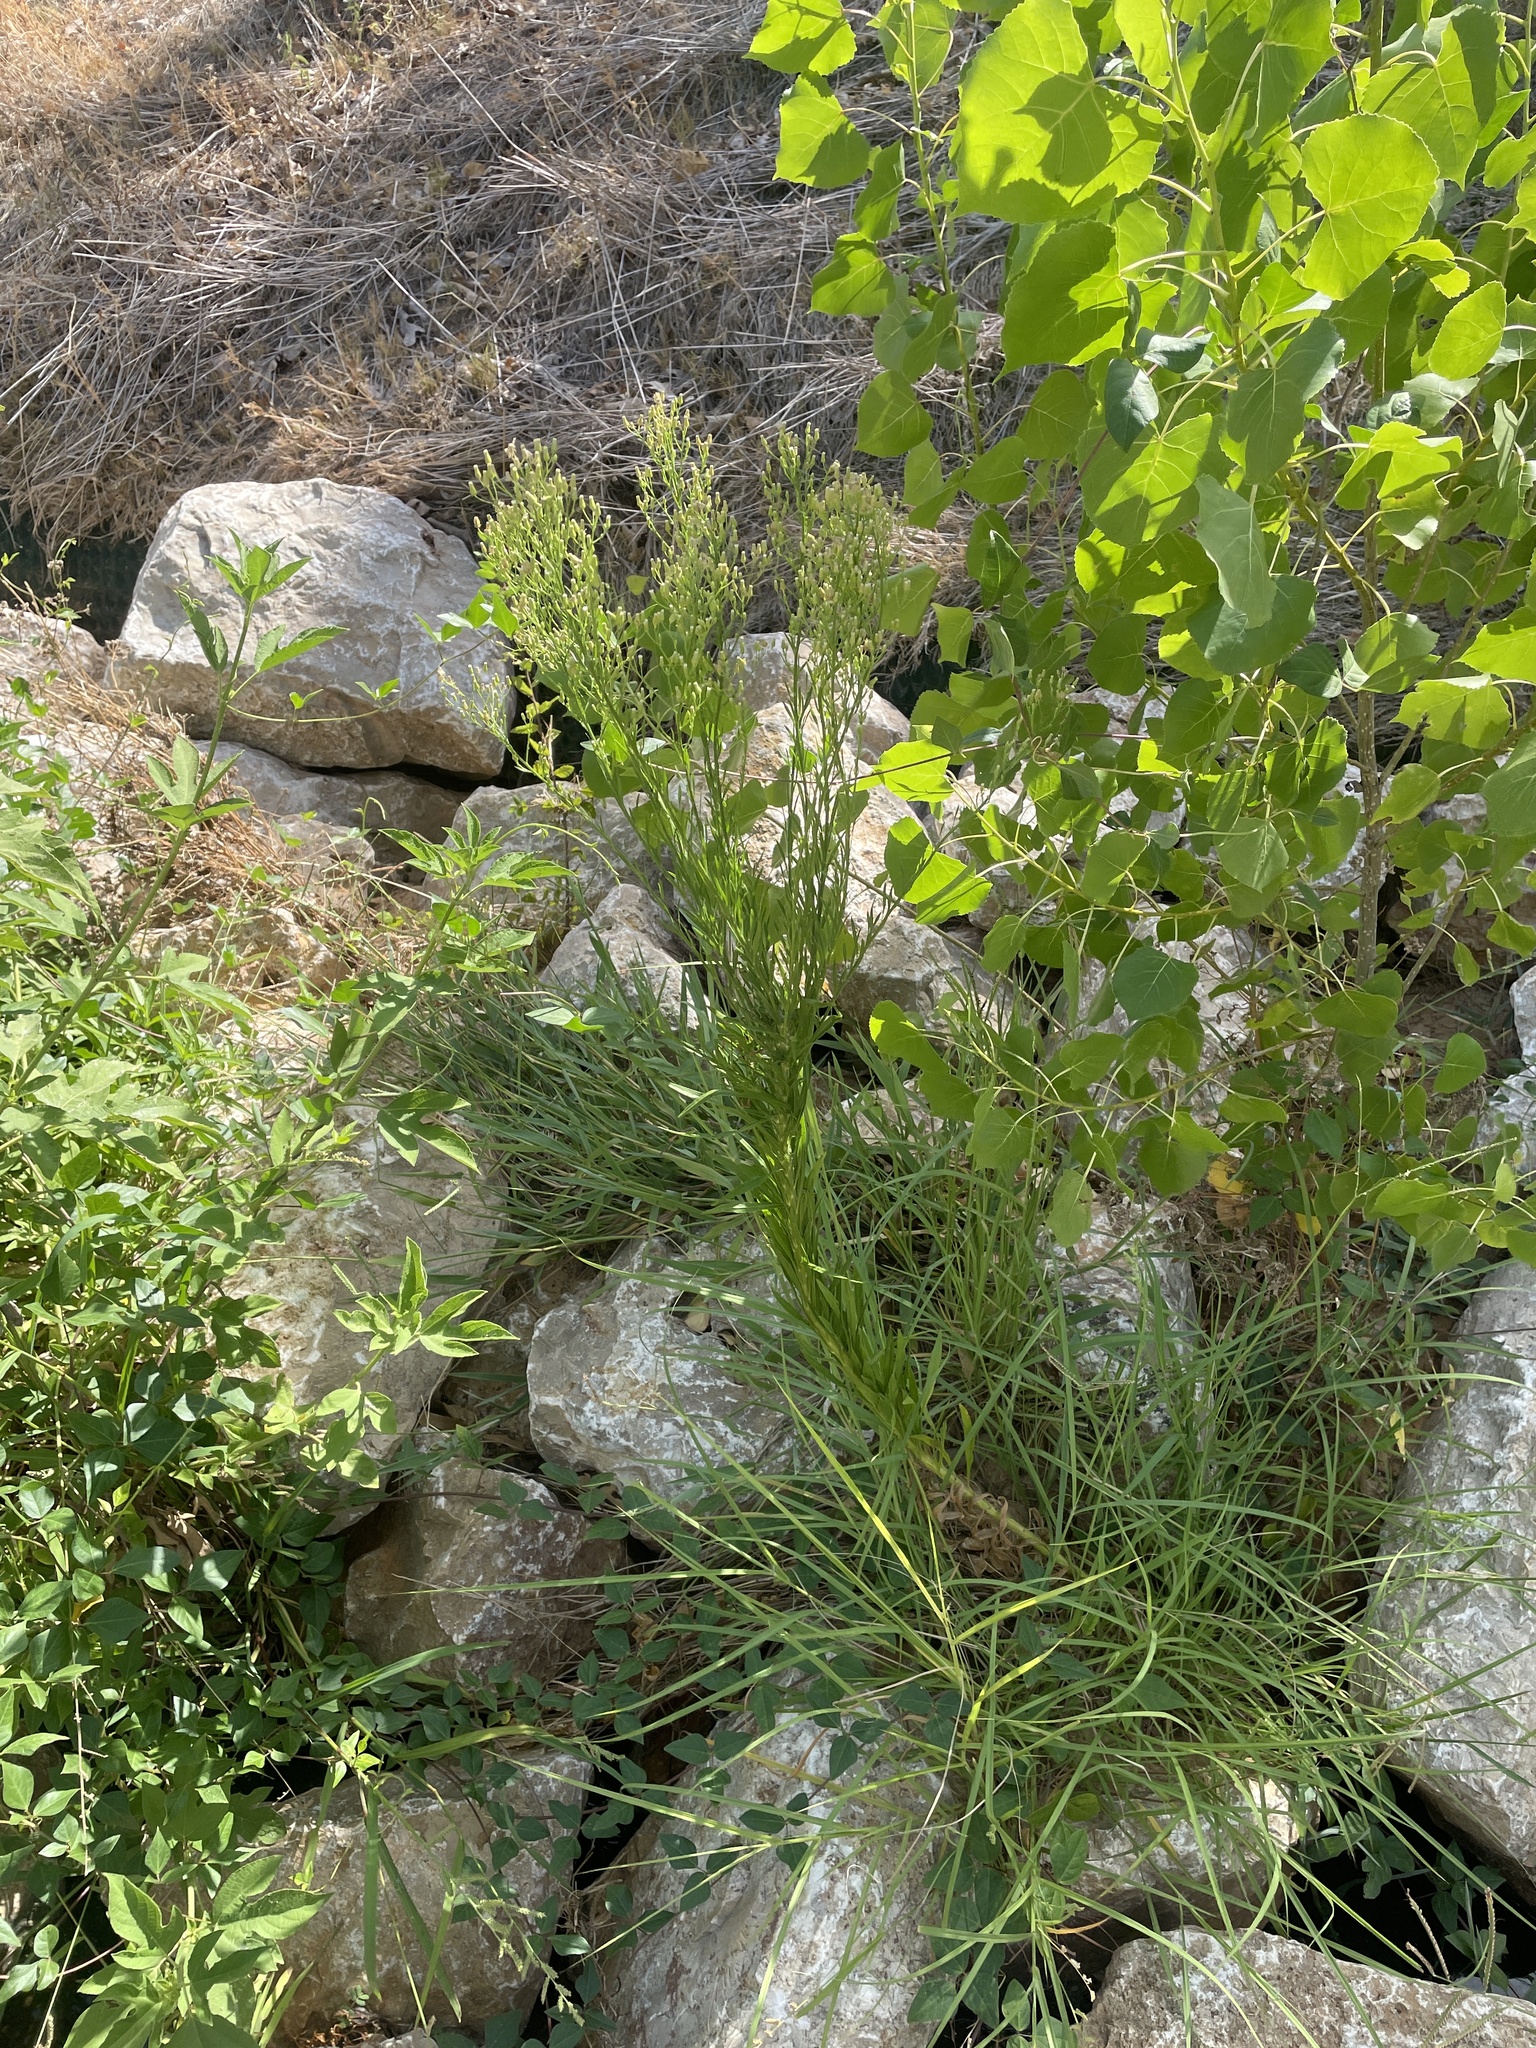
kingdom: Plantae
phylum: Tracheophyta
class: Magnoliopsida
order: Asterales
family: Asteraceae
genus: Erigeron
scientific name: Erigeron canadensis
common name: Canadian fleabane
